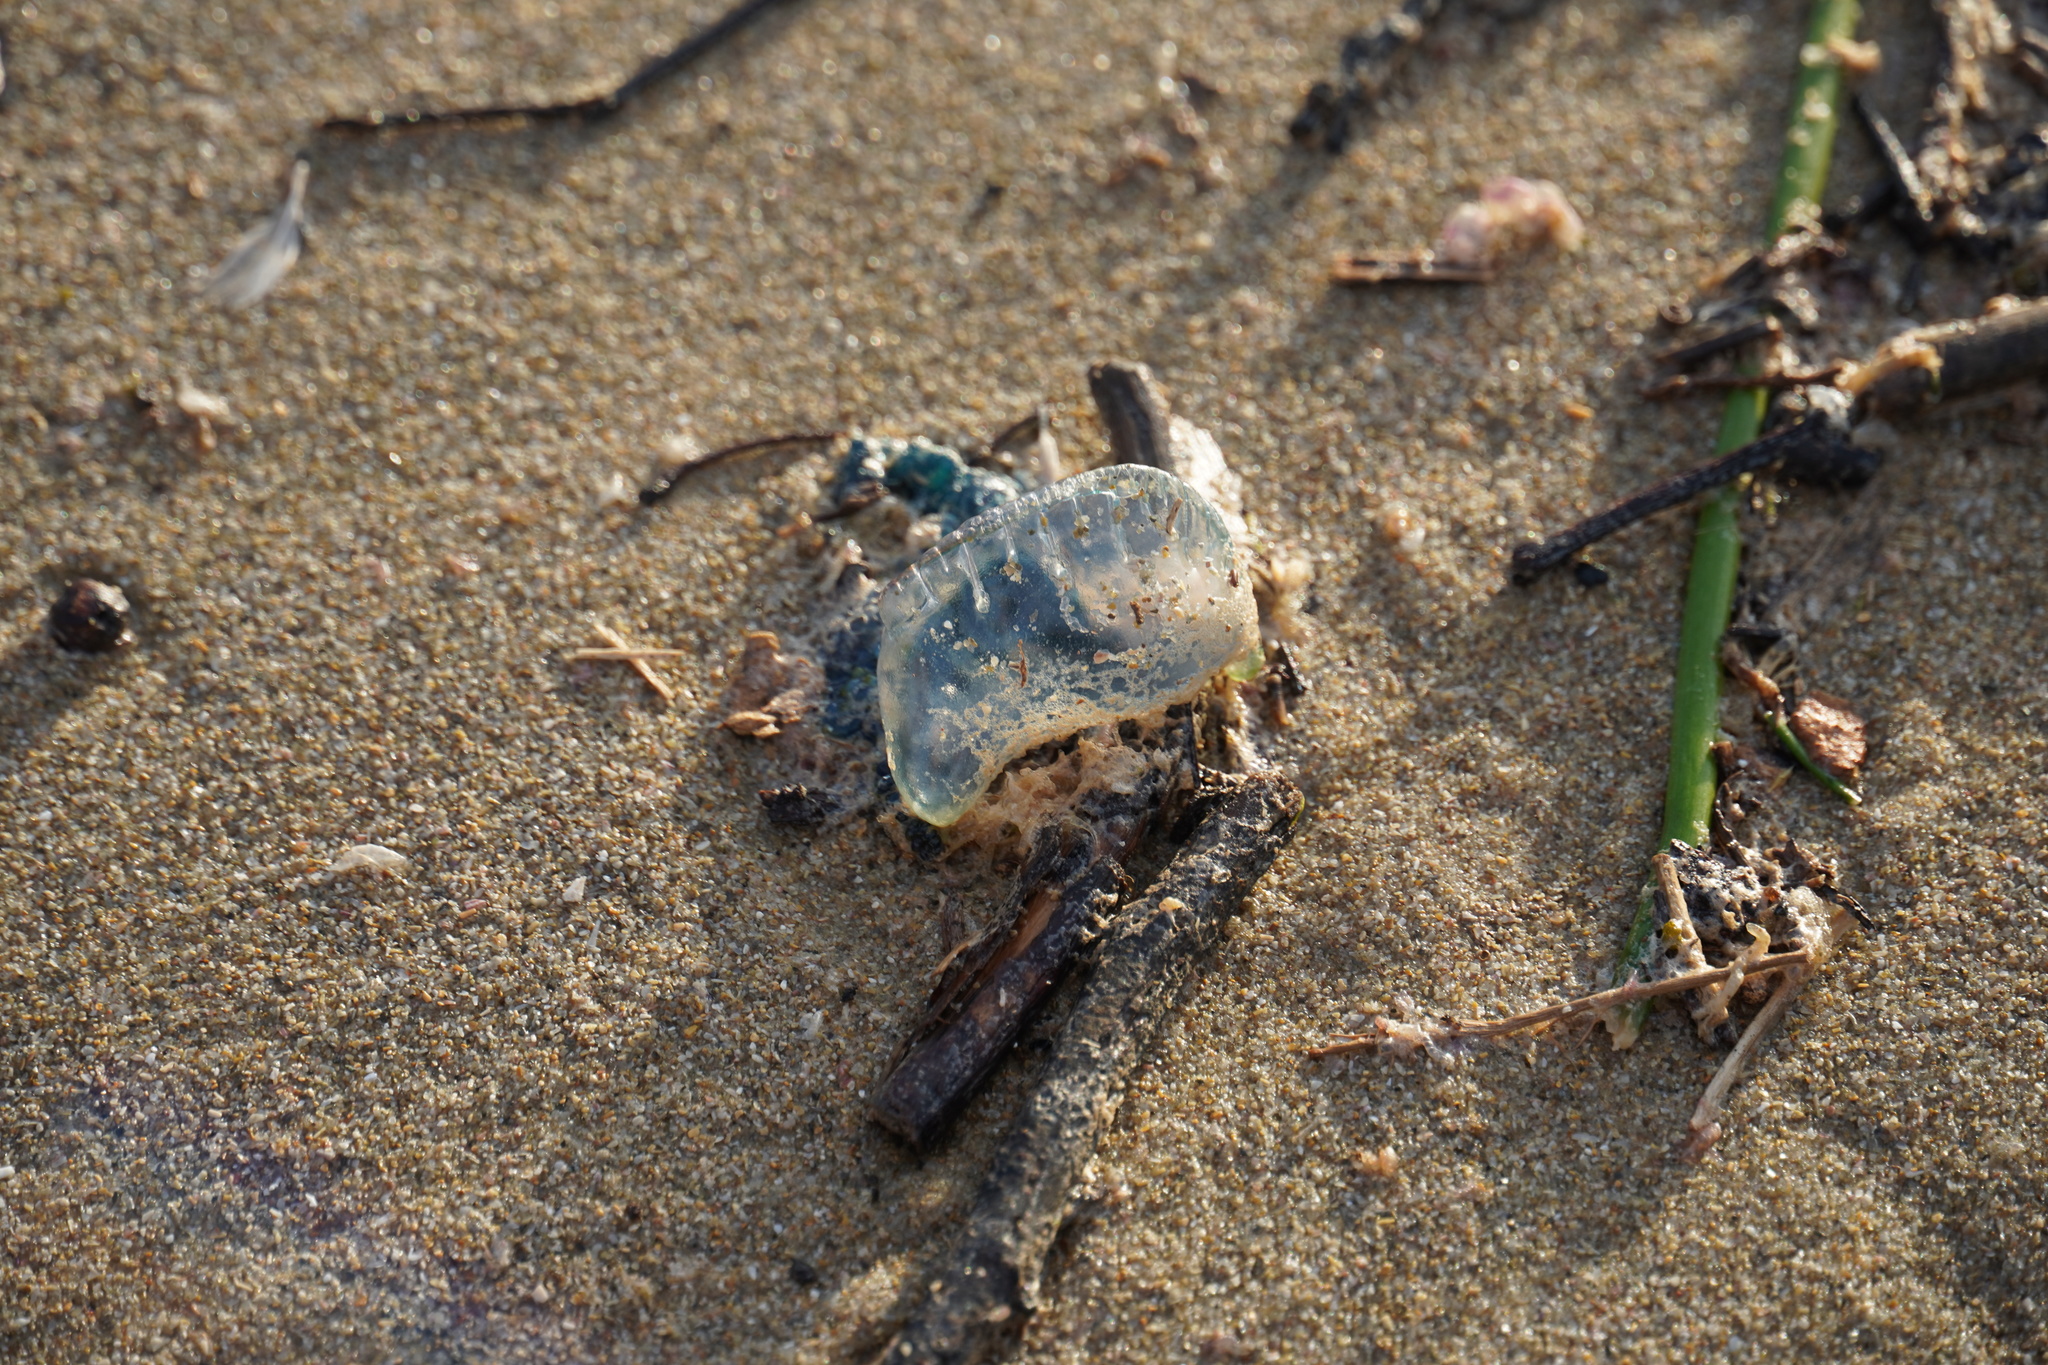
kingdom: Animalia
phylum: Cnidaria
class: Hydrozoa
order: Siphonophorae
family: Physaliidae
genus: Physalia
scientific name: Physalia physalis
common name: Portuguese man-of-war
